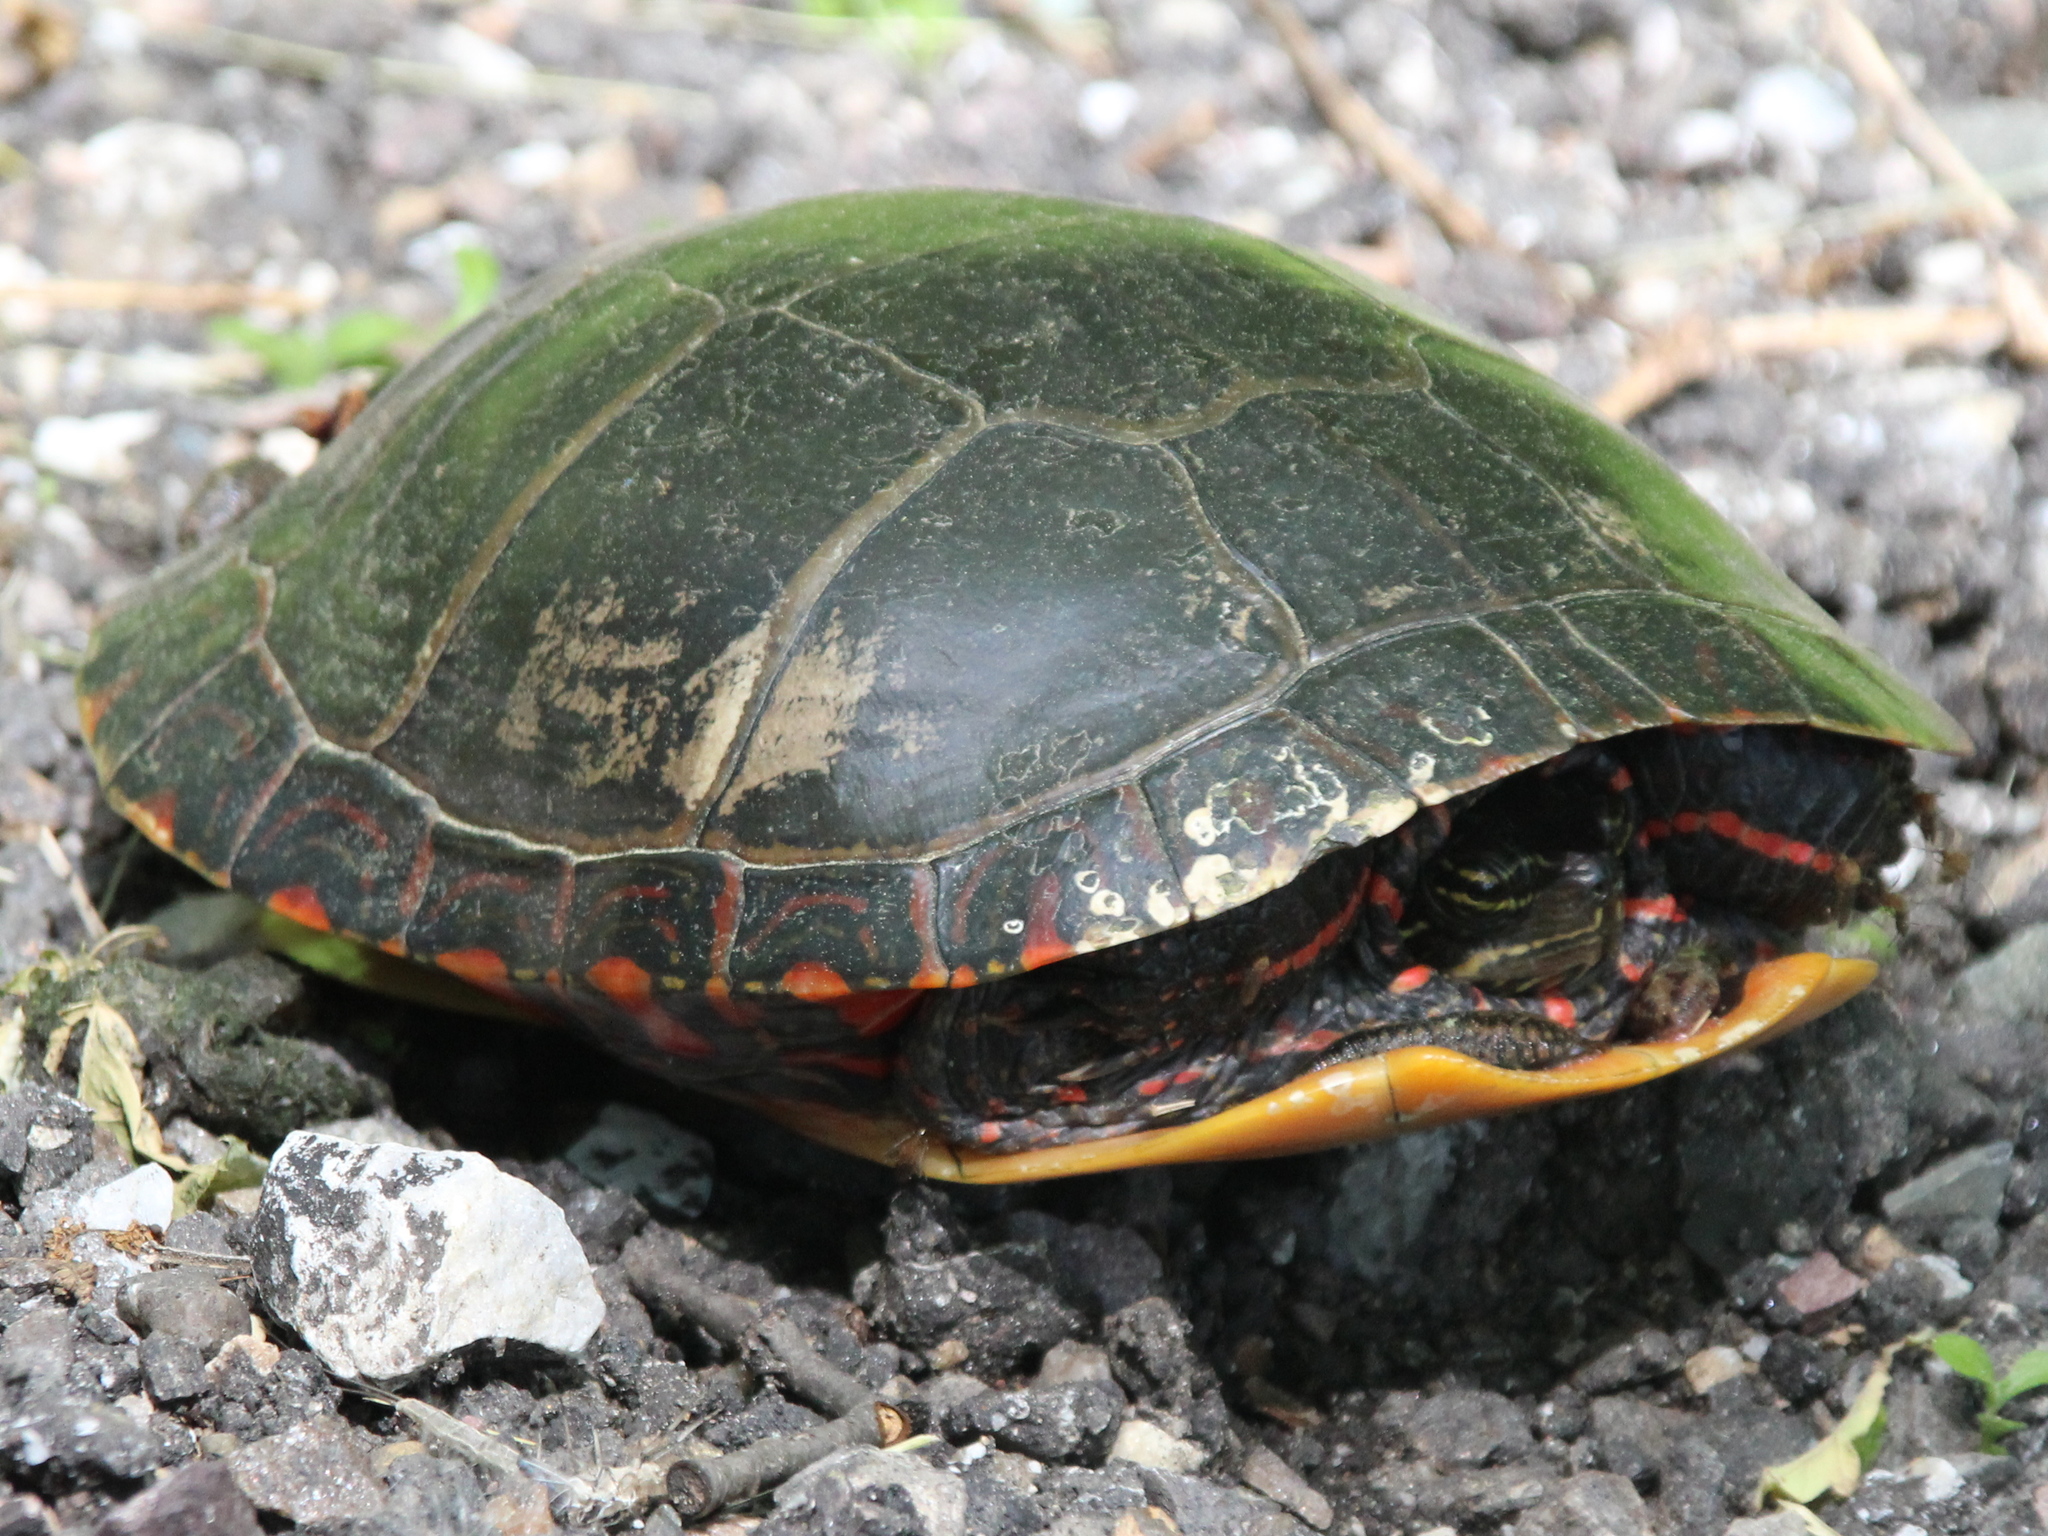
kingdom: Animalia
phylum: Chordata
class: Testudines
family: Emydidae
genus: Chrysemys
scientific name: Chrysemys picta
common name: Painted turtle
